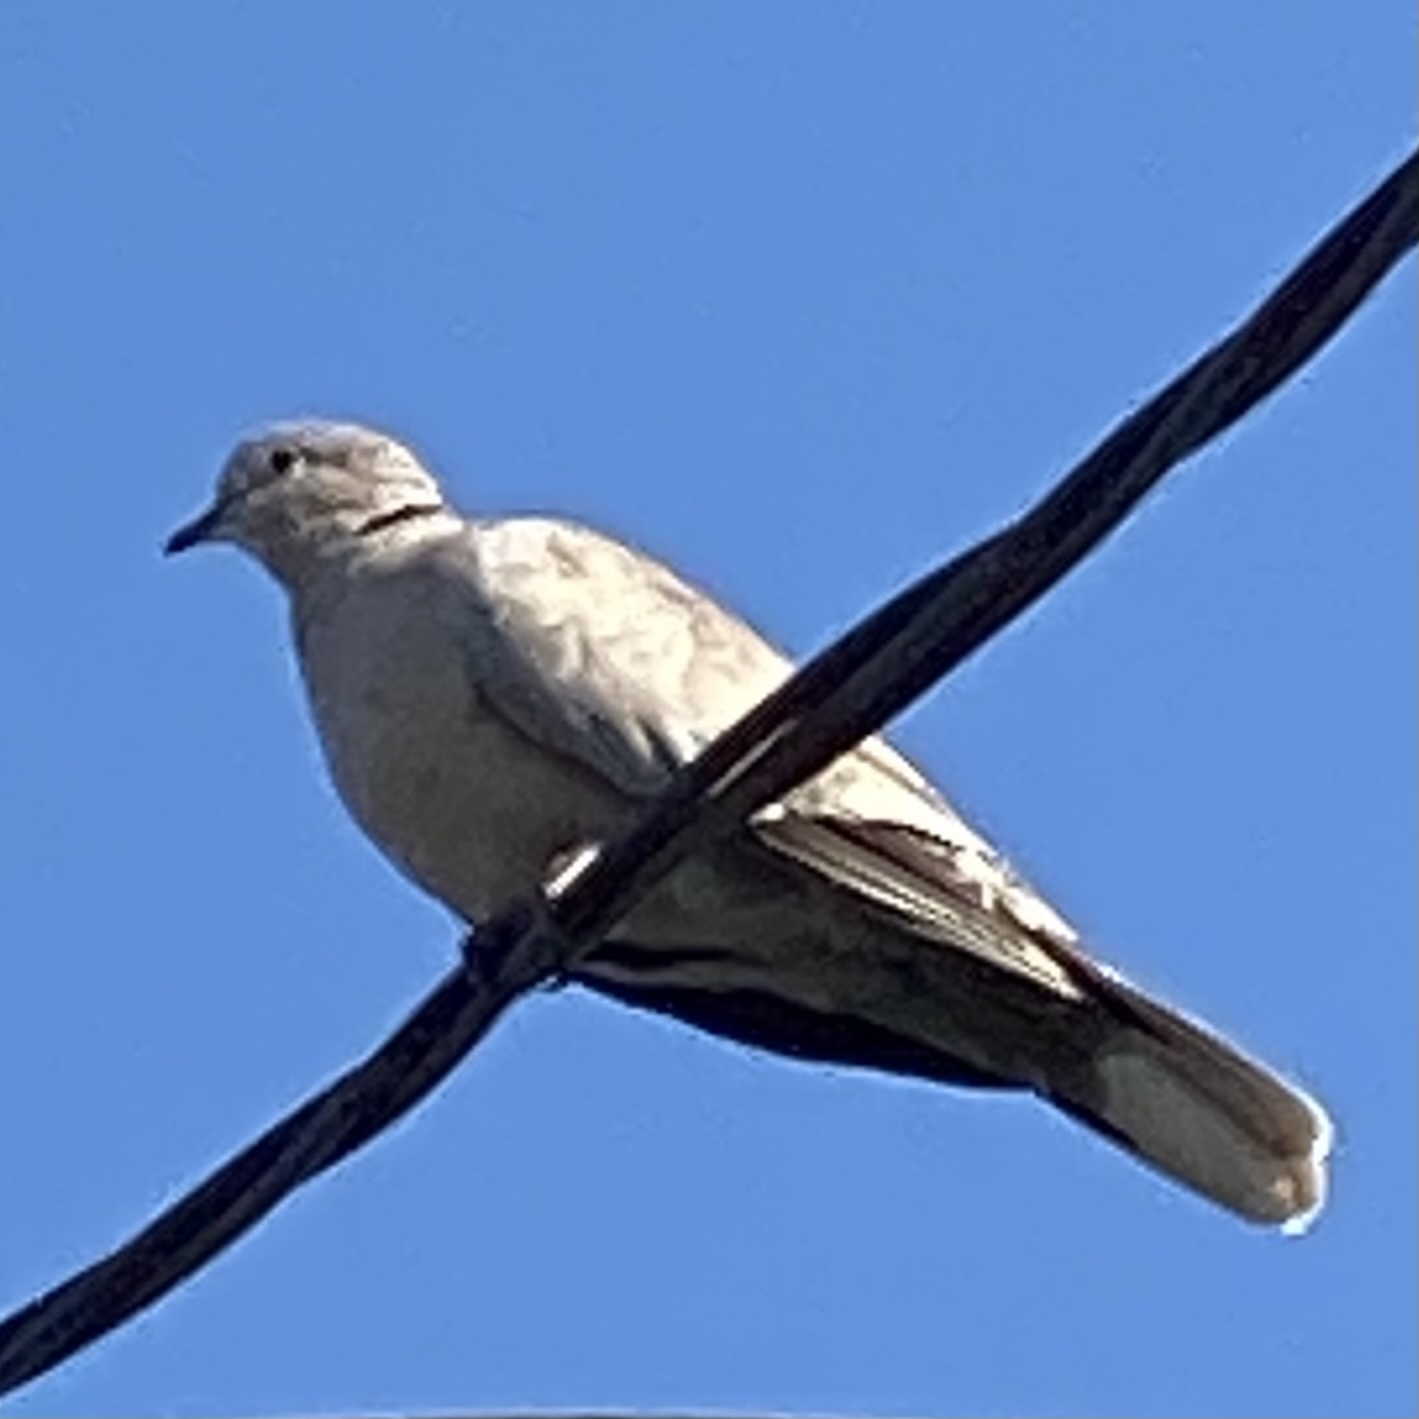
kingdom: Animalia
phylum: Chordata
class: Aves
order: Columbiformes
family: Columbidae
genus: Streptopelia
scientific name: Streptopelia decaocto
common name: Eurasian collared dove
